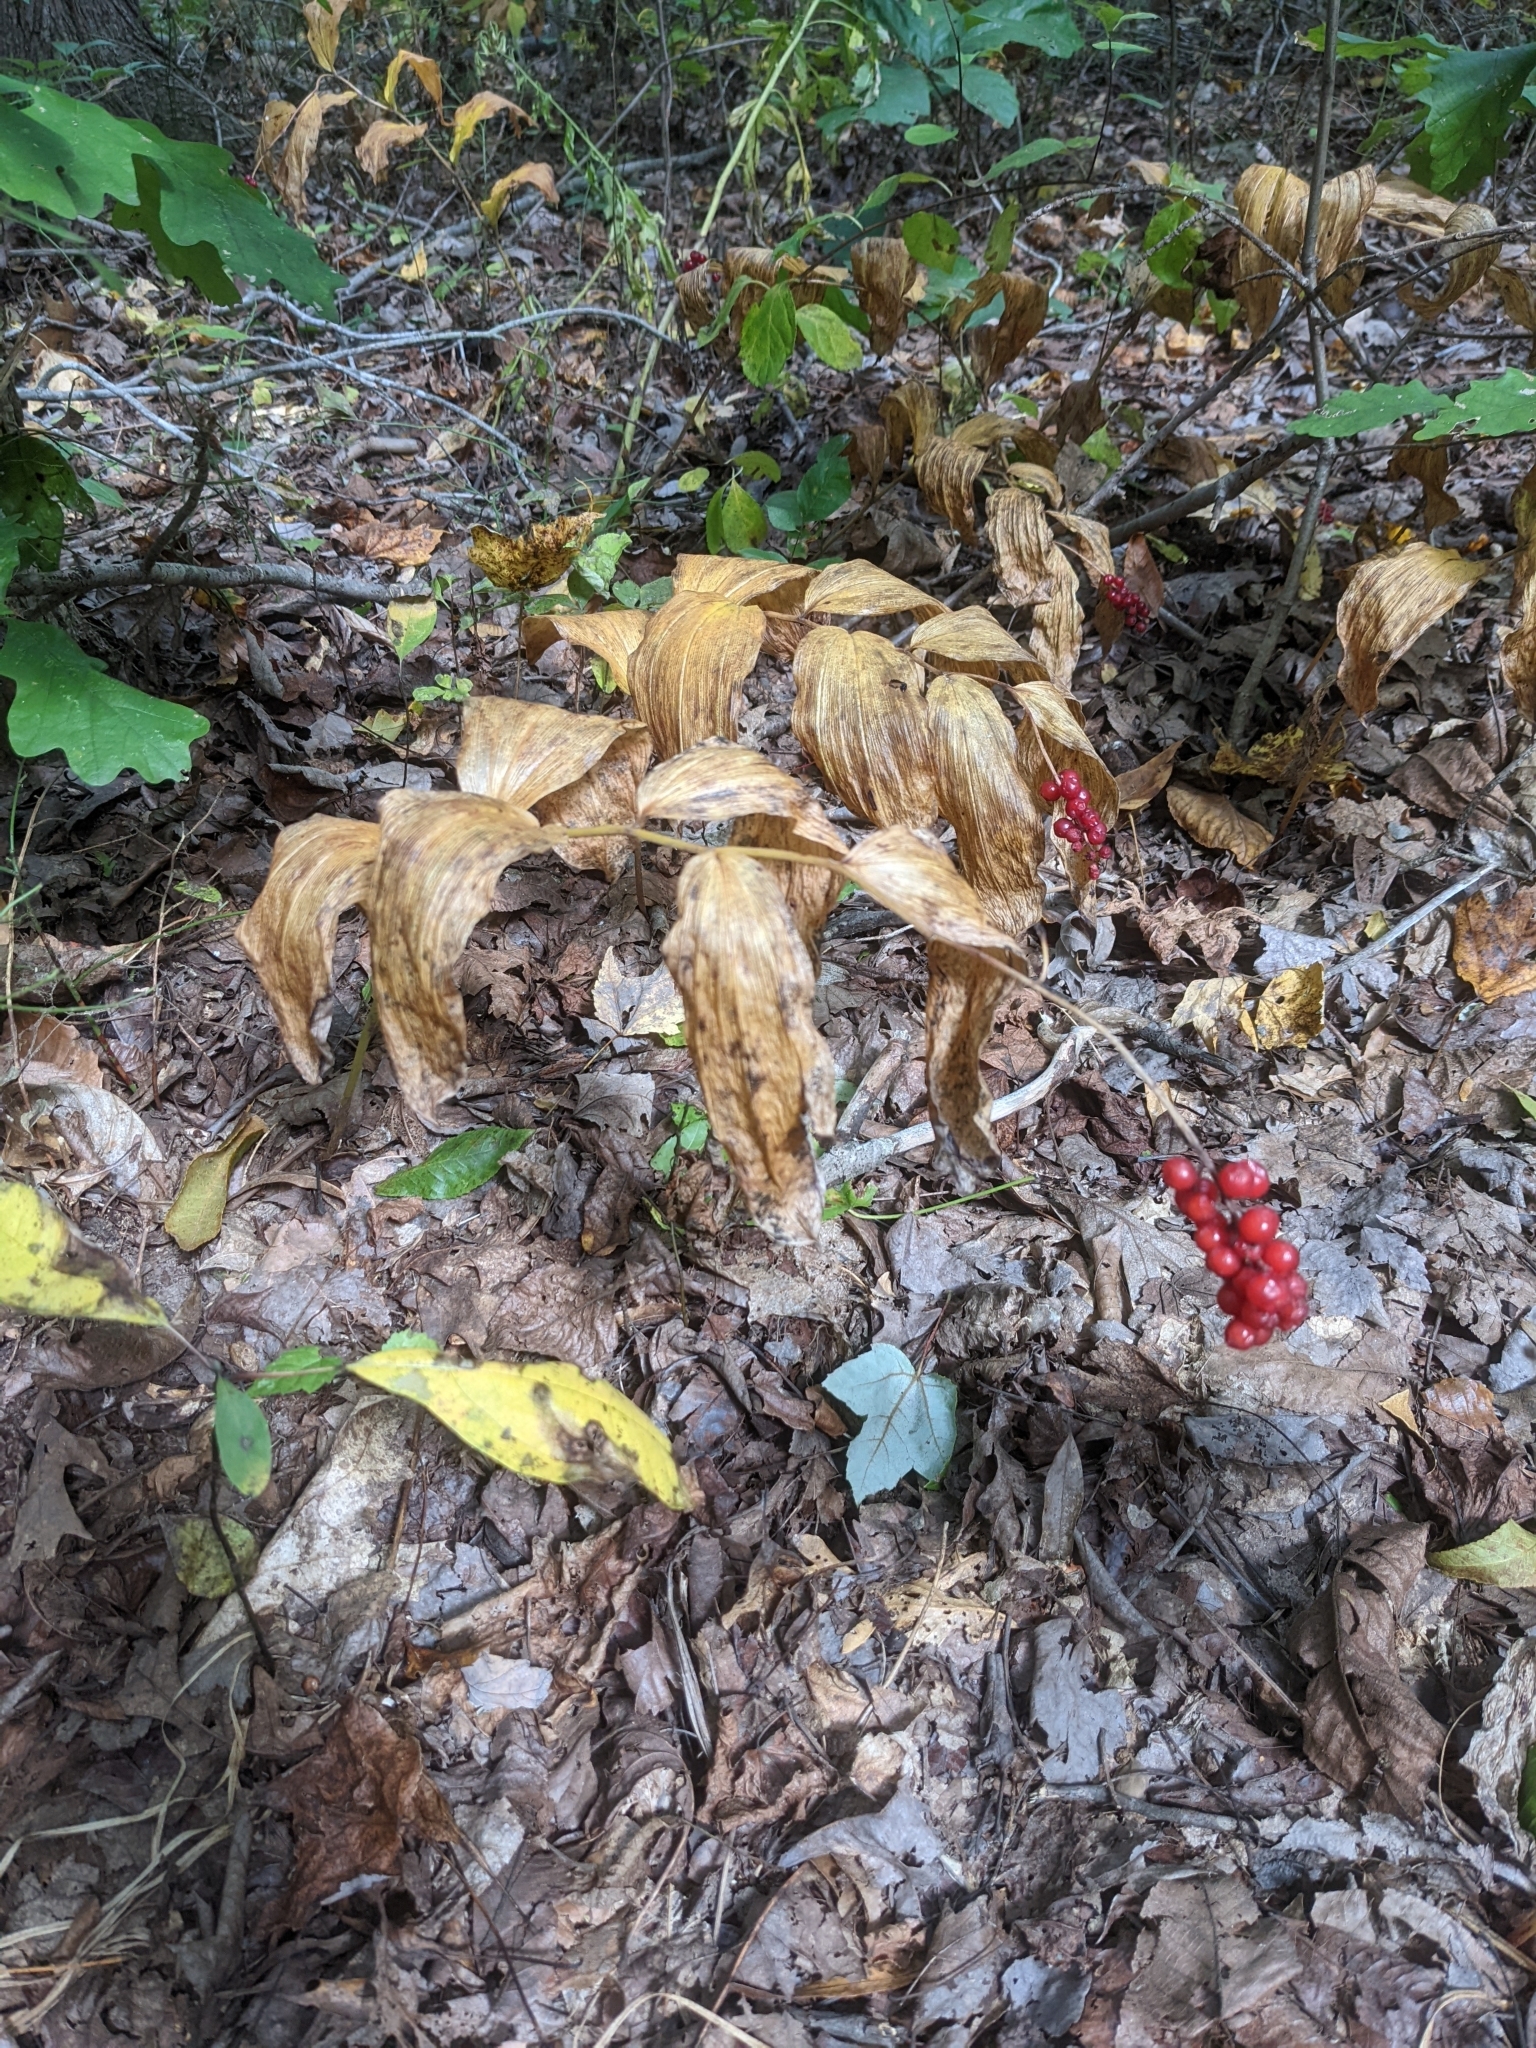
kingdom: Plantae
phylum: Tracheophyta
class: Liliopsida
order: Asparagales
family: Asparagaceae
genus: Maianthemum
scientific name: Maianthemum racemosum
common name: False spikenard
